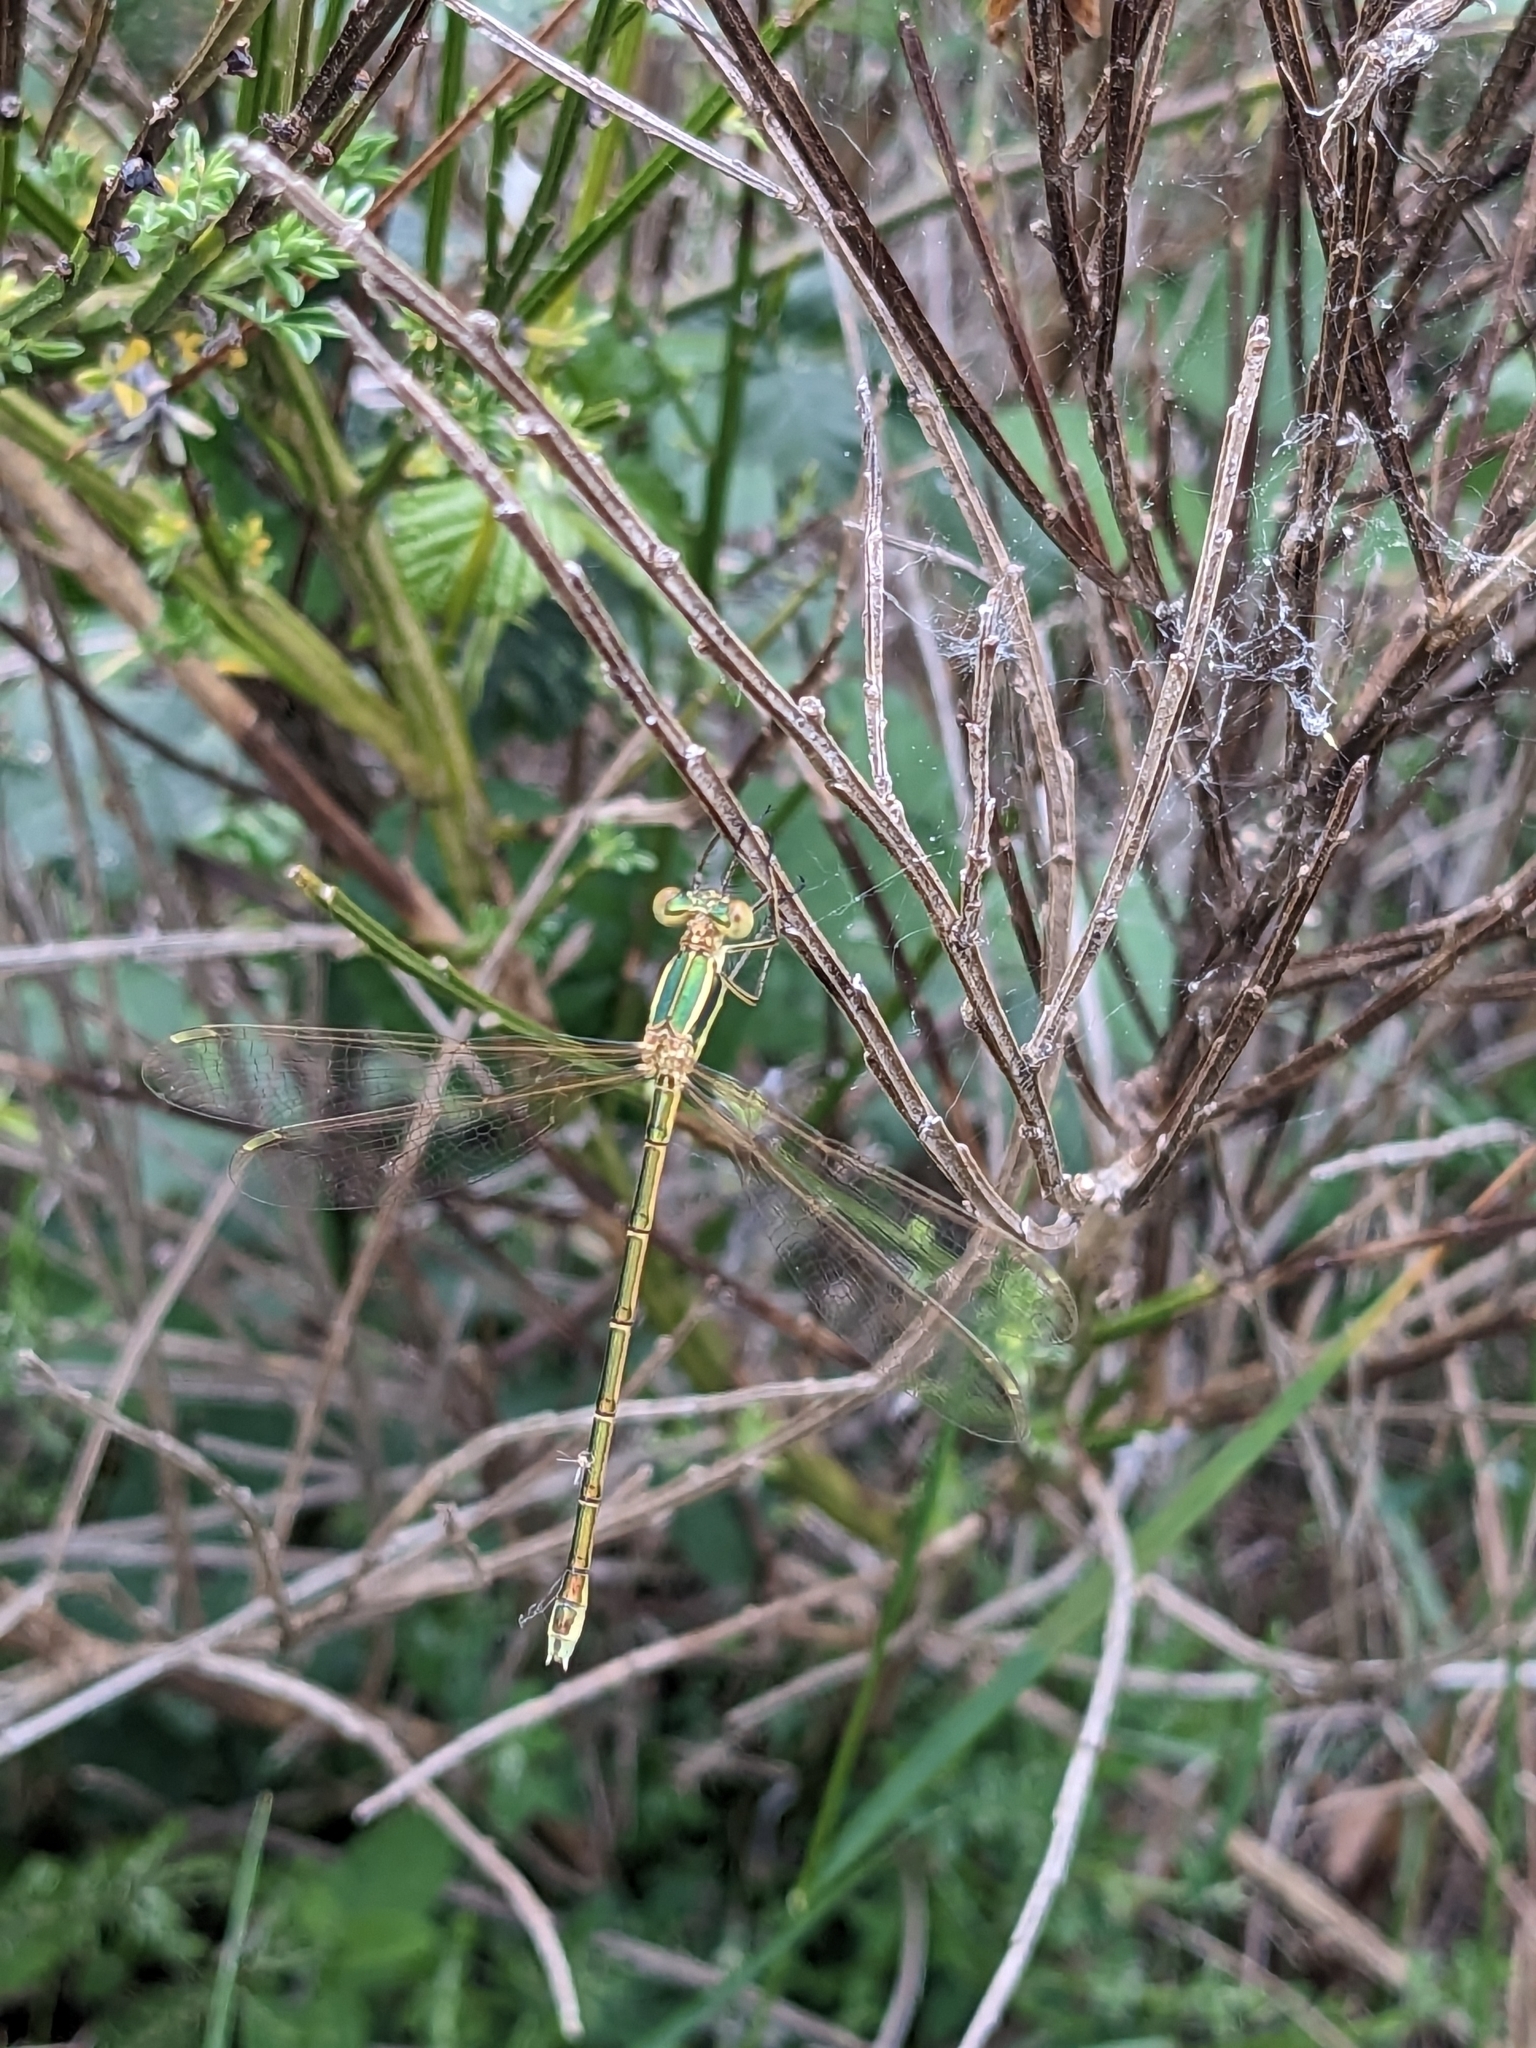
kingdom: Animalia
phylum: Arthropoda
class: Insecta
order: Odonata
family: Lestidae
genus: Lestes
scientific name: Lestes barbarus
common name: Migrant spreadwing
